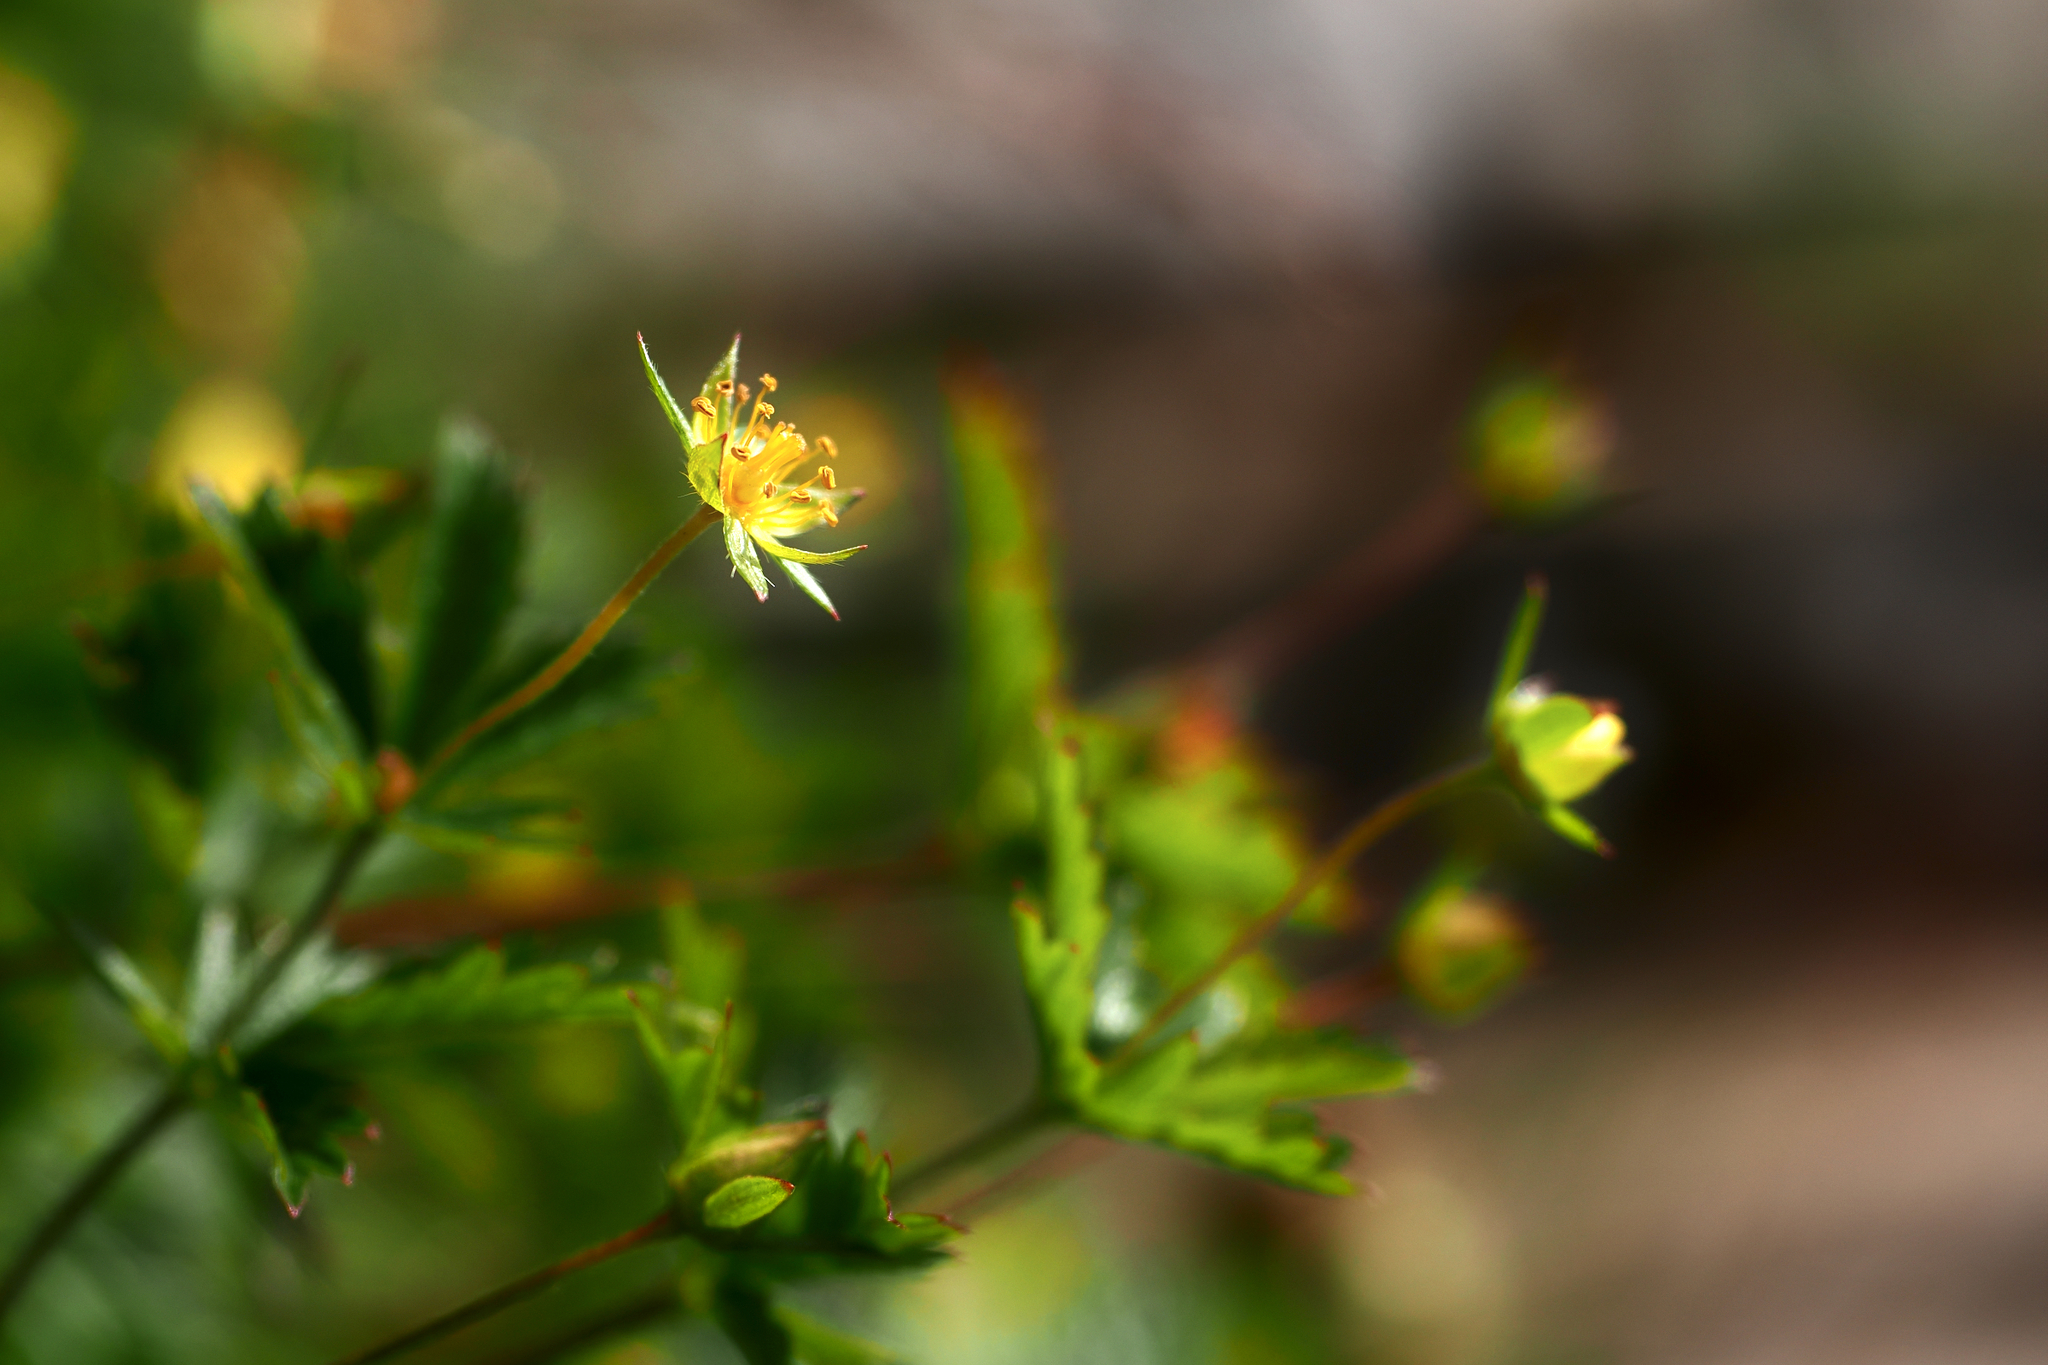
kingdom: Plantae
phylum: Tracheophyta
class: Magnoliopsida
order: Rosales
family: Rosaceae
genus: Potentilla
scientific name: Potentilla erecta
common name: Tormentil
